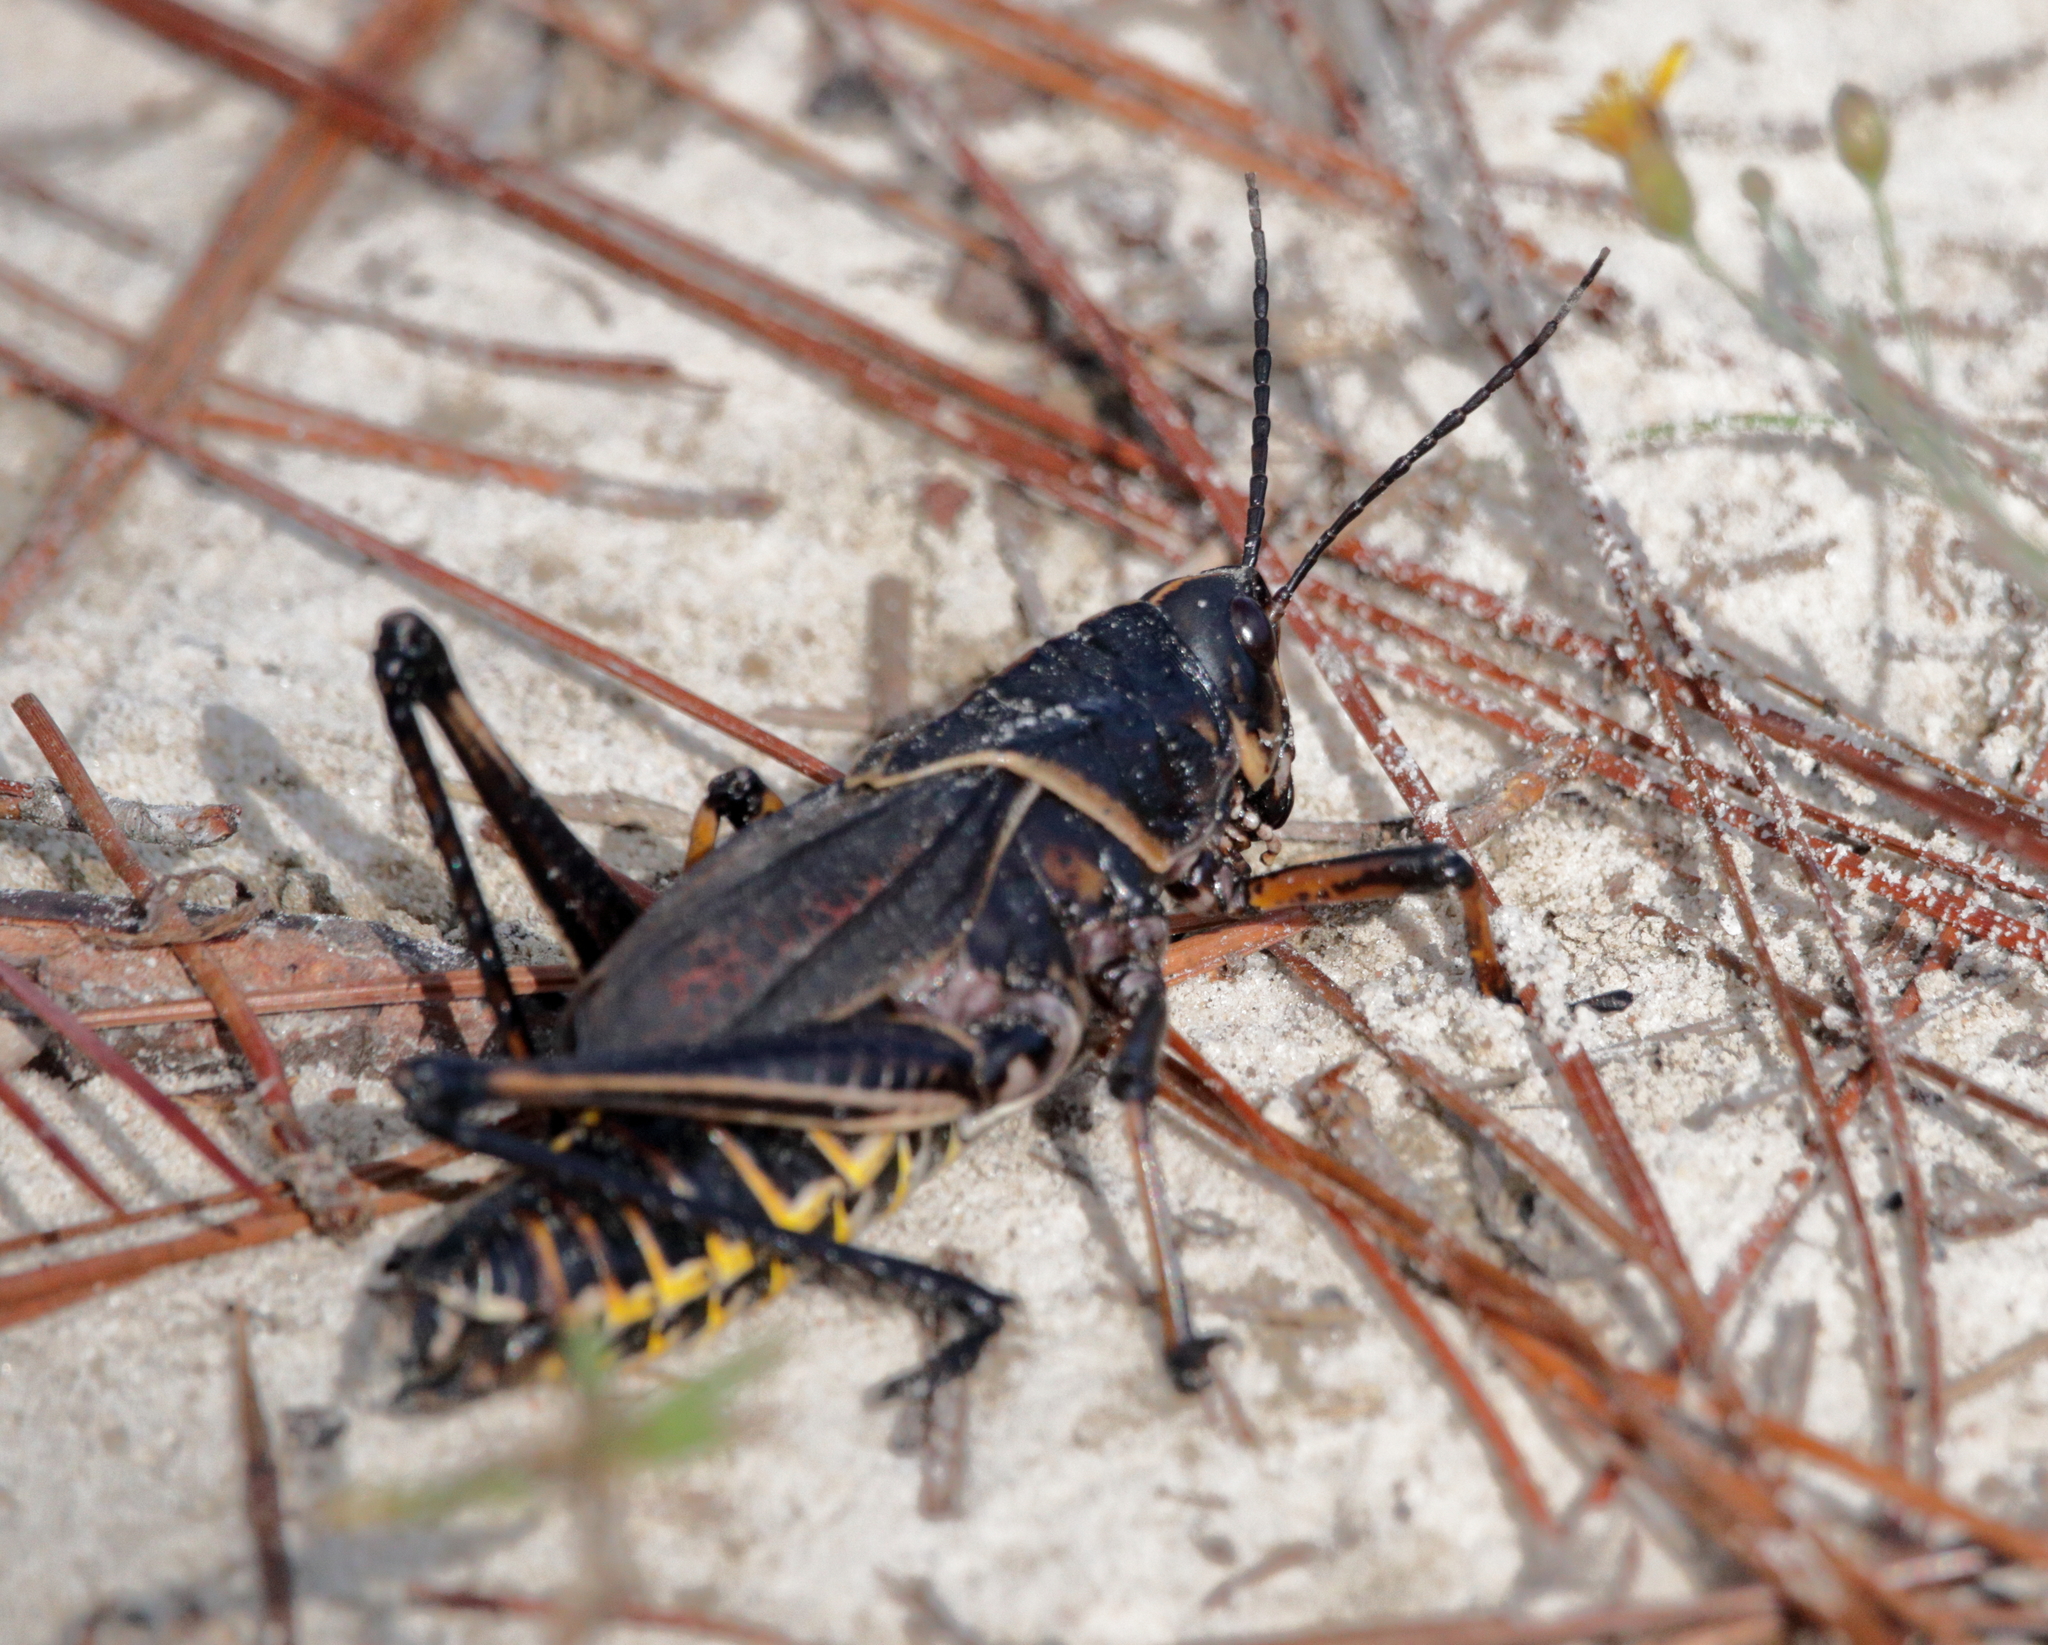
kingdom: Animalia
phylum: Arthropoda
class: Insecta
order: Orthoptera
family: Romaleidae
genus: Romalea
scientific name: Romalea microptera
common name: Eastern lubber grasshopper
